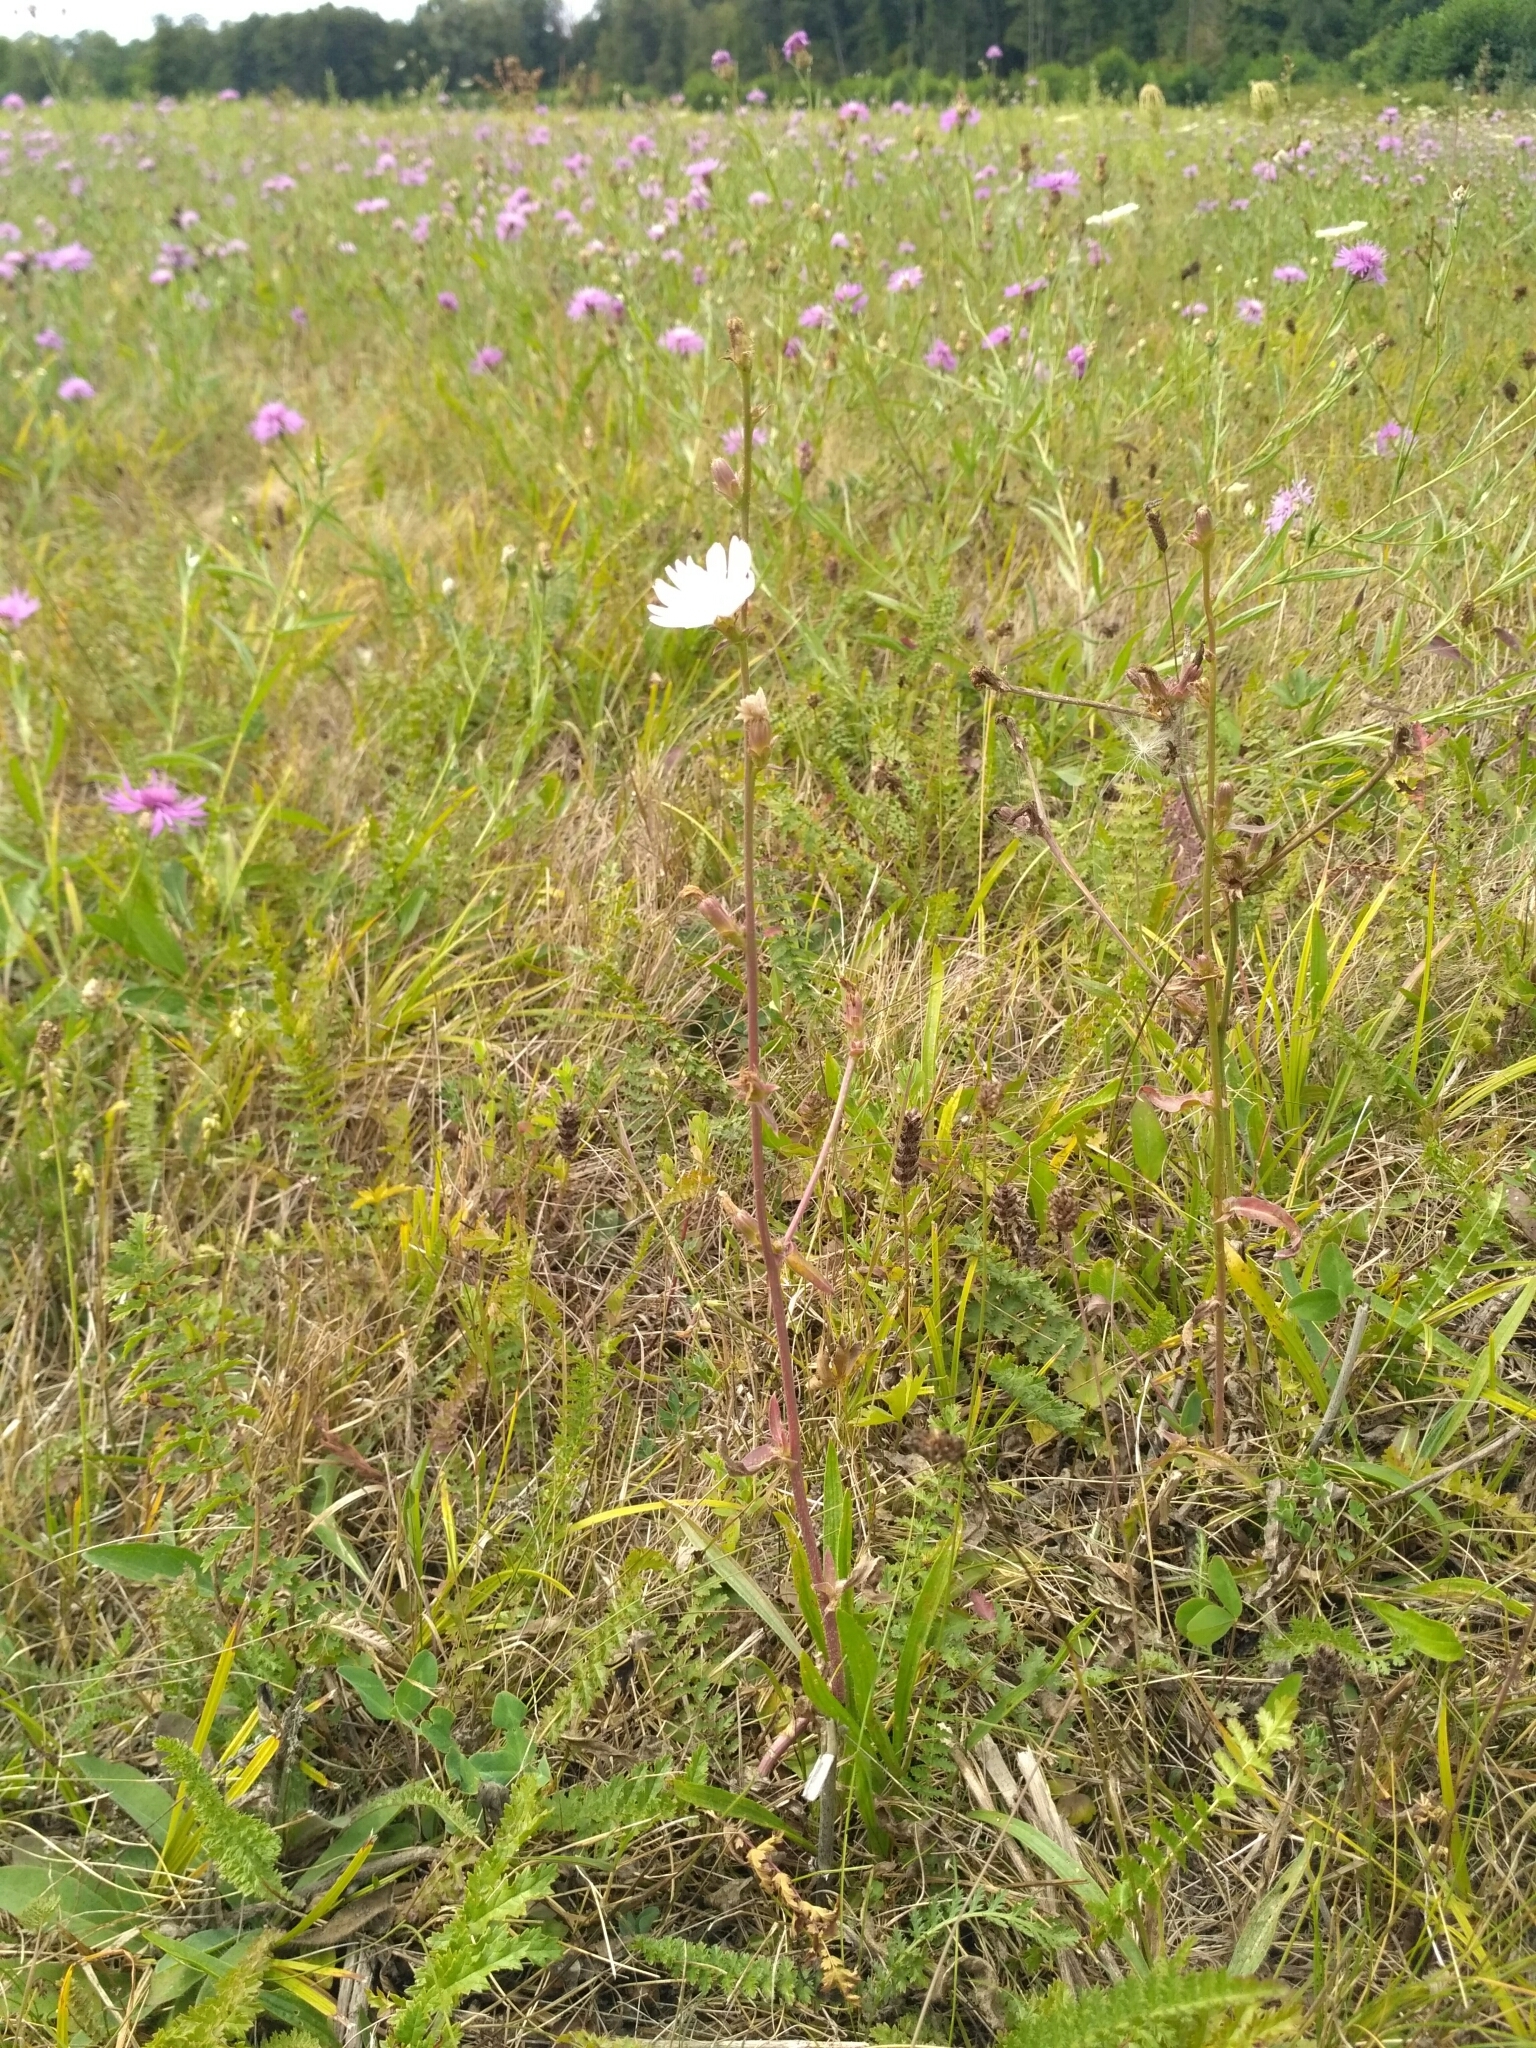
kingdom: Plantae
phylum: Tracheophyta
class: Magnoliopsida
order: Asterales
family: Asteraceae
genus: Cichorium
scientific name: Cichorium intybus
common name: Chicory
